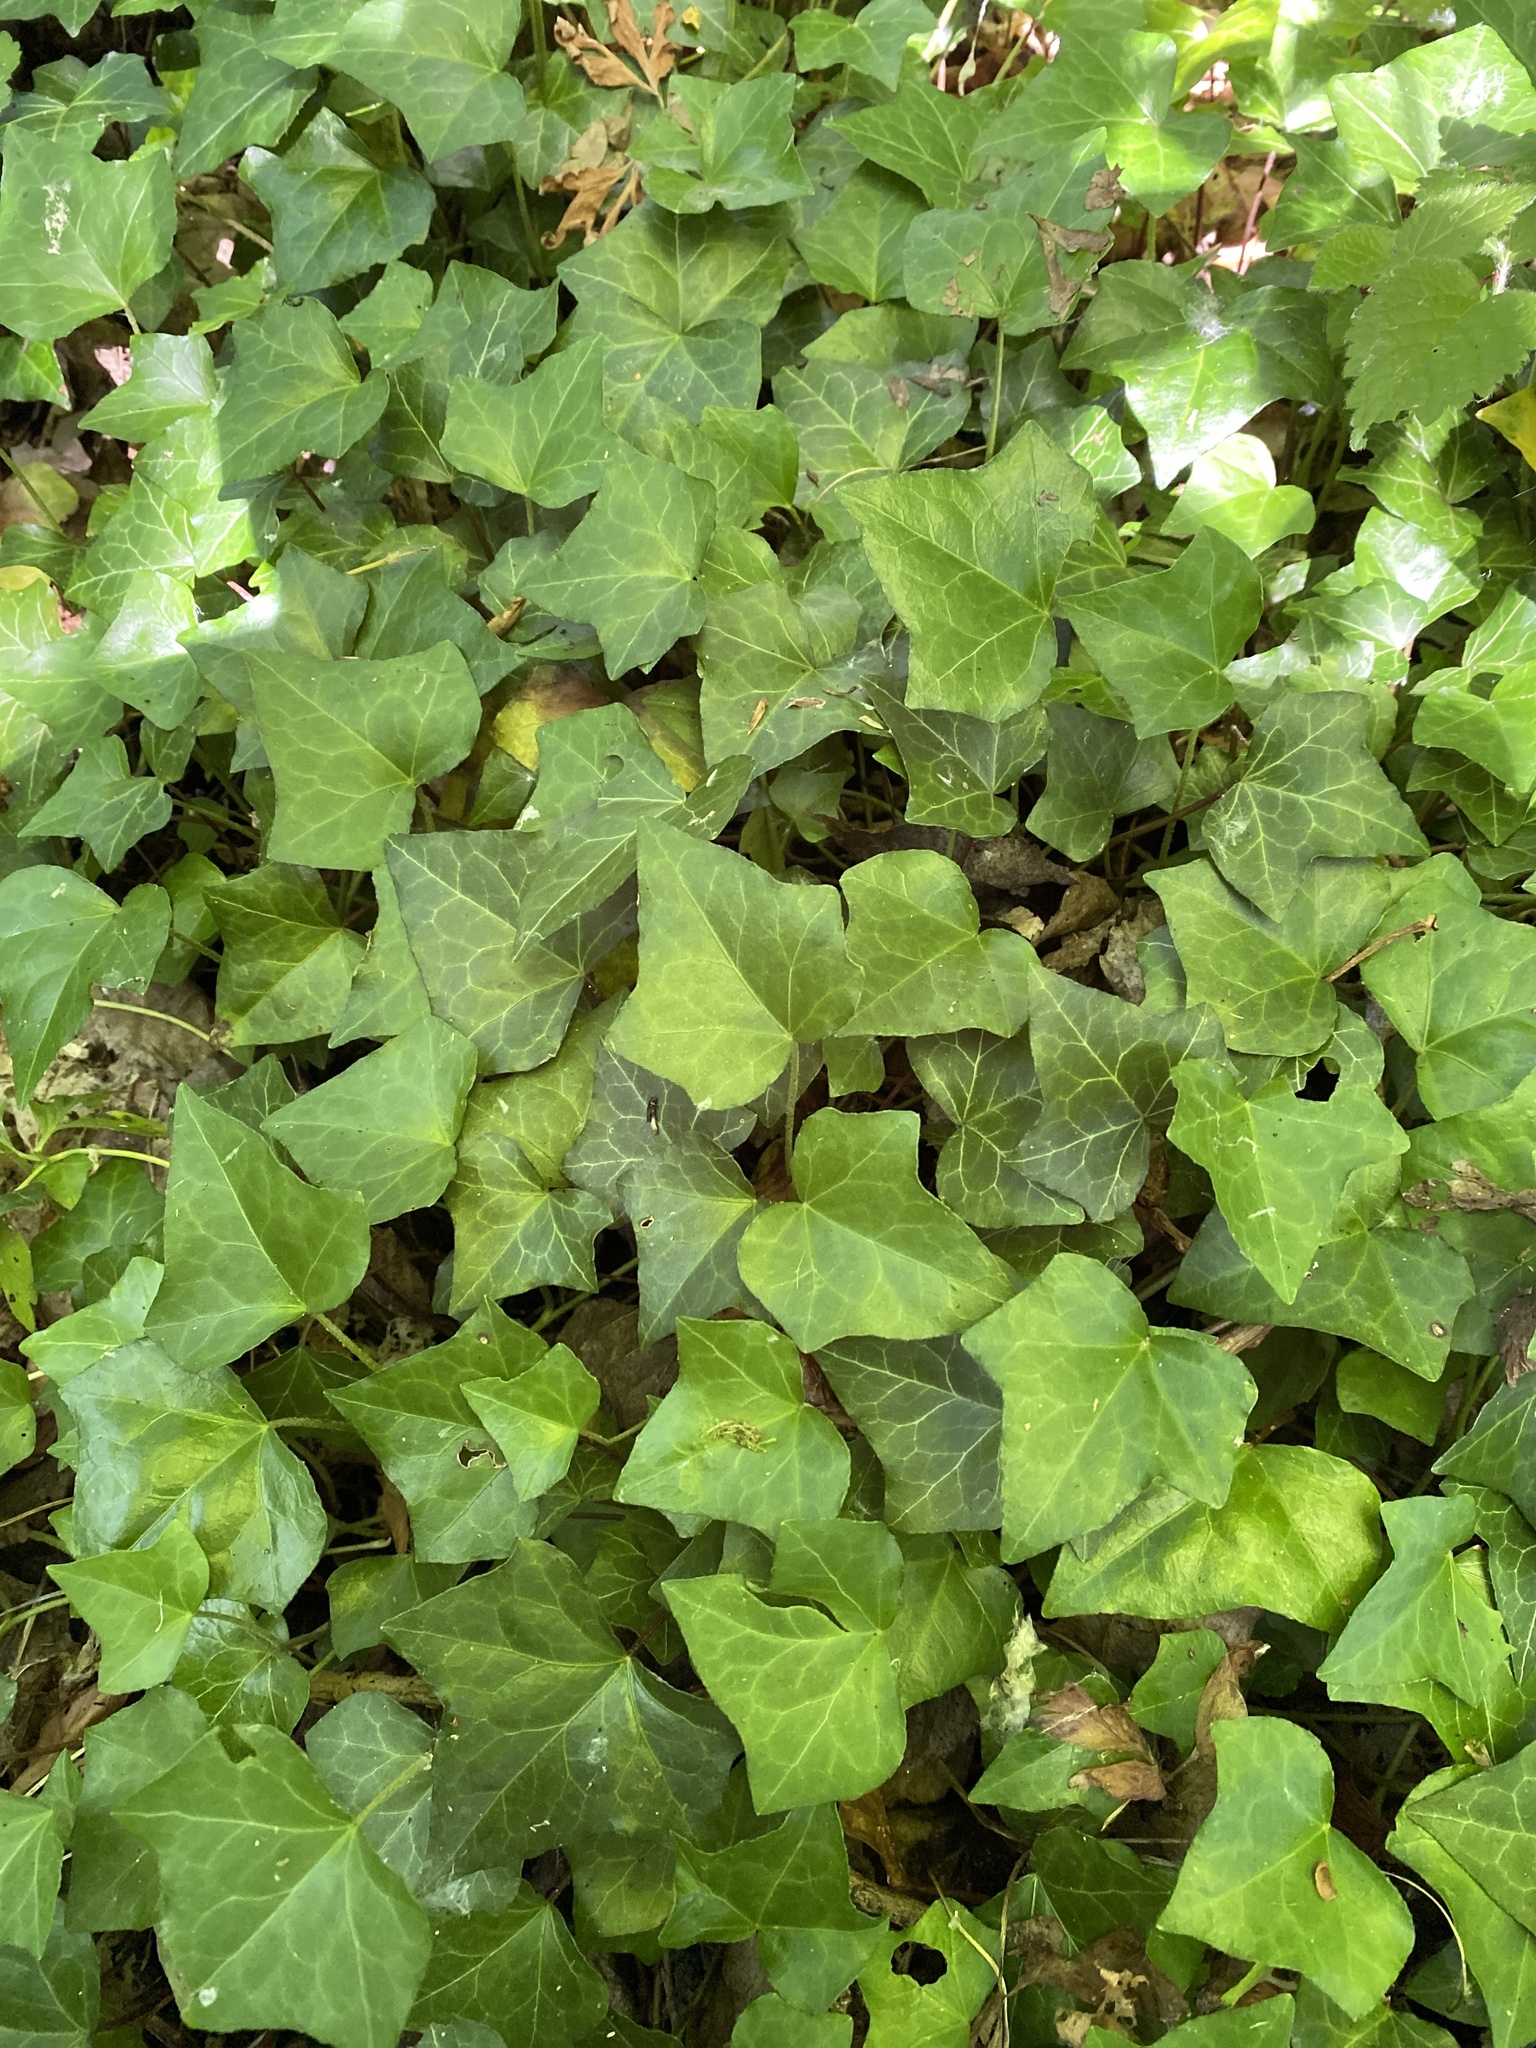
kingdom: Plantae
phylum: Tracheophyta
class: Magnoliopsida
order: Apiales
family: Araliaceae
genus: Hedera
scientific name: Hedera helix
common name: Ivy
